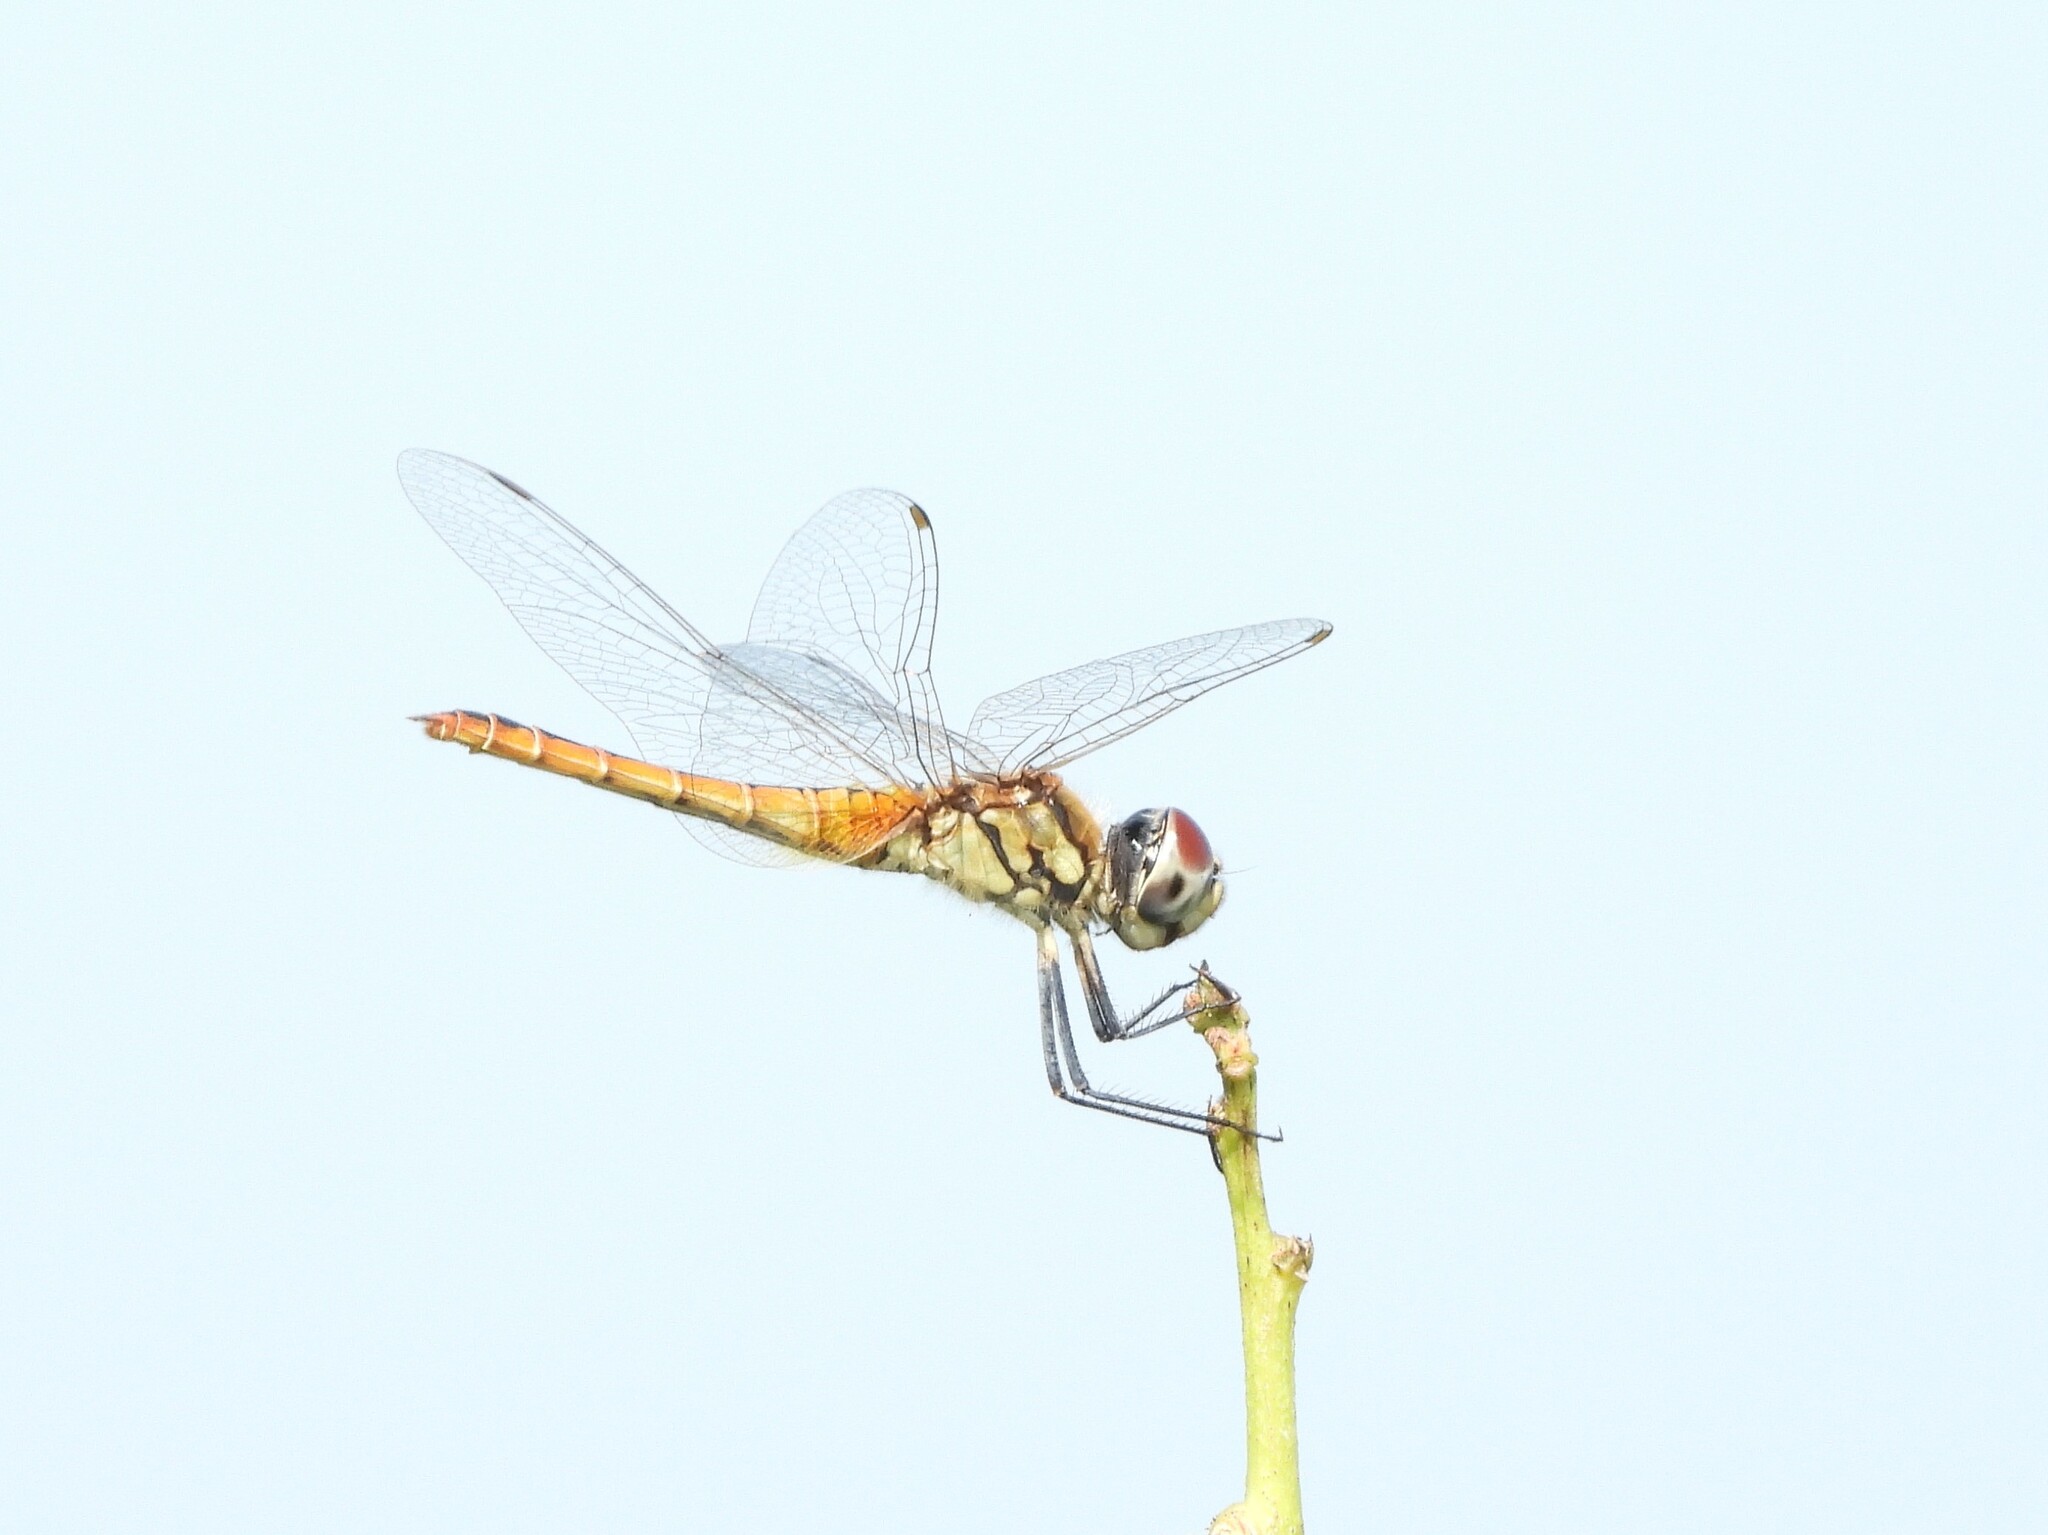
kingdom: Animalia
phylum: Arthropoda
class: Insecta
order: Odonata
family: Libellulidae
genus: Macrodiplax
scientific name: Macrodiplax cora
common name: Coastal glider
